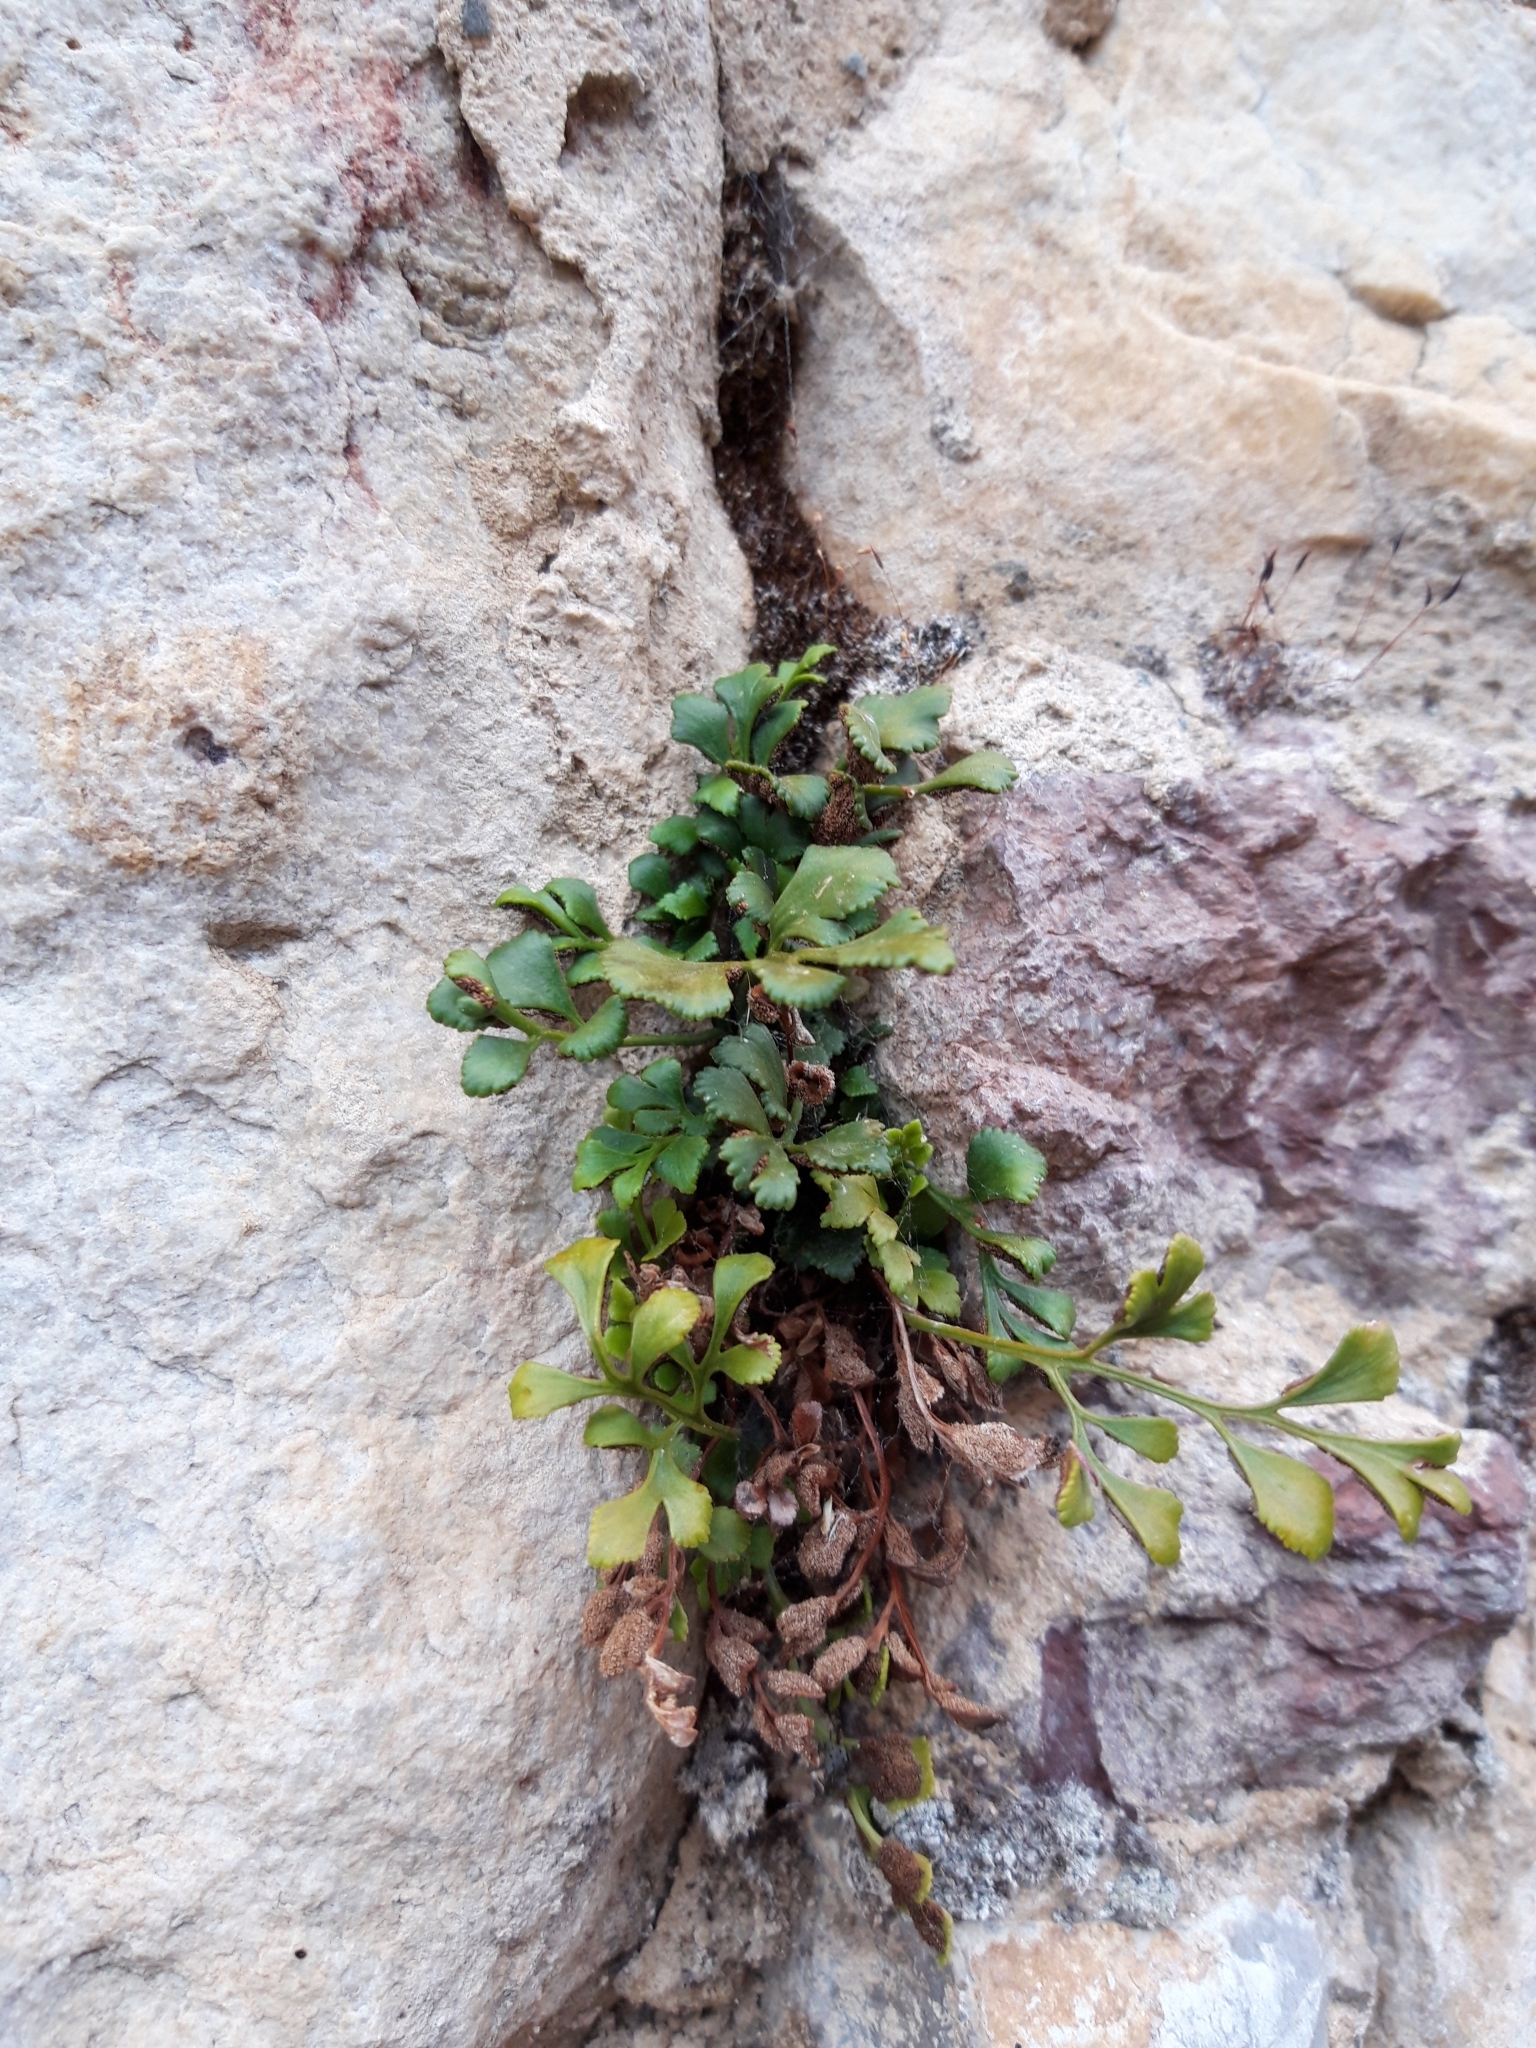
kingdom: Plantae
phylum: Tracheophyta
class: Polypodiopsida
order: Polypodiales
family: Aspleniaceae
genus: Asplenium
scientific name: Asplenium ruta-muraria
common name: Wall-rue
